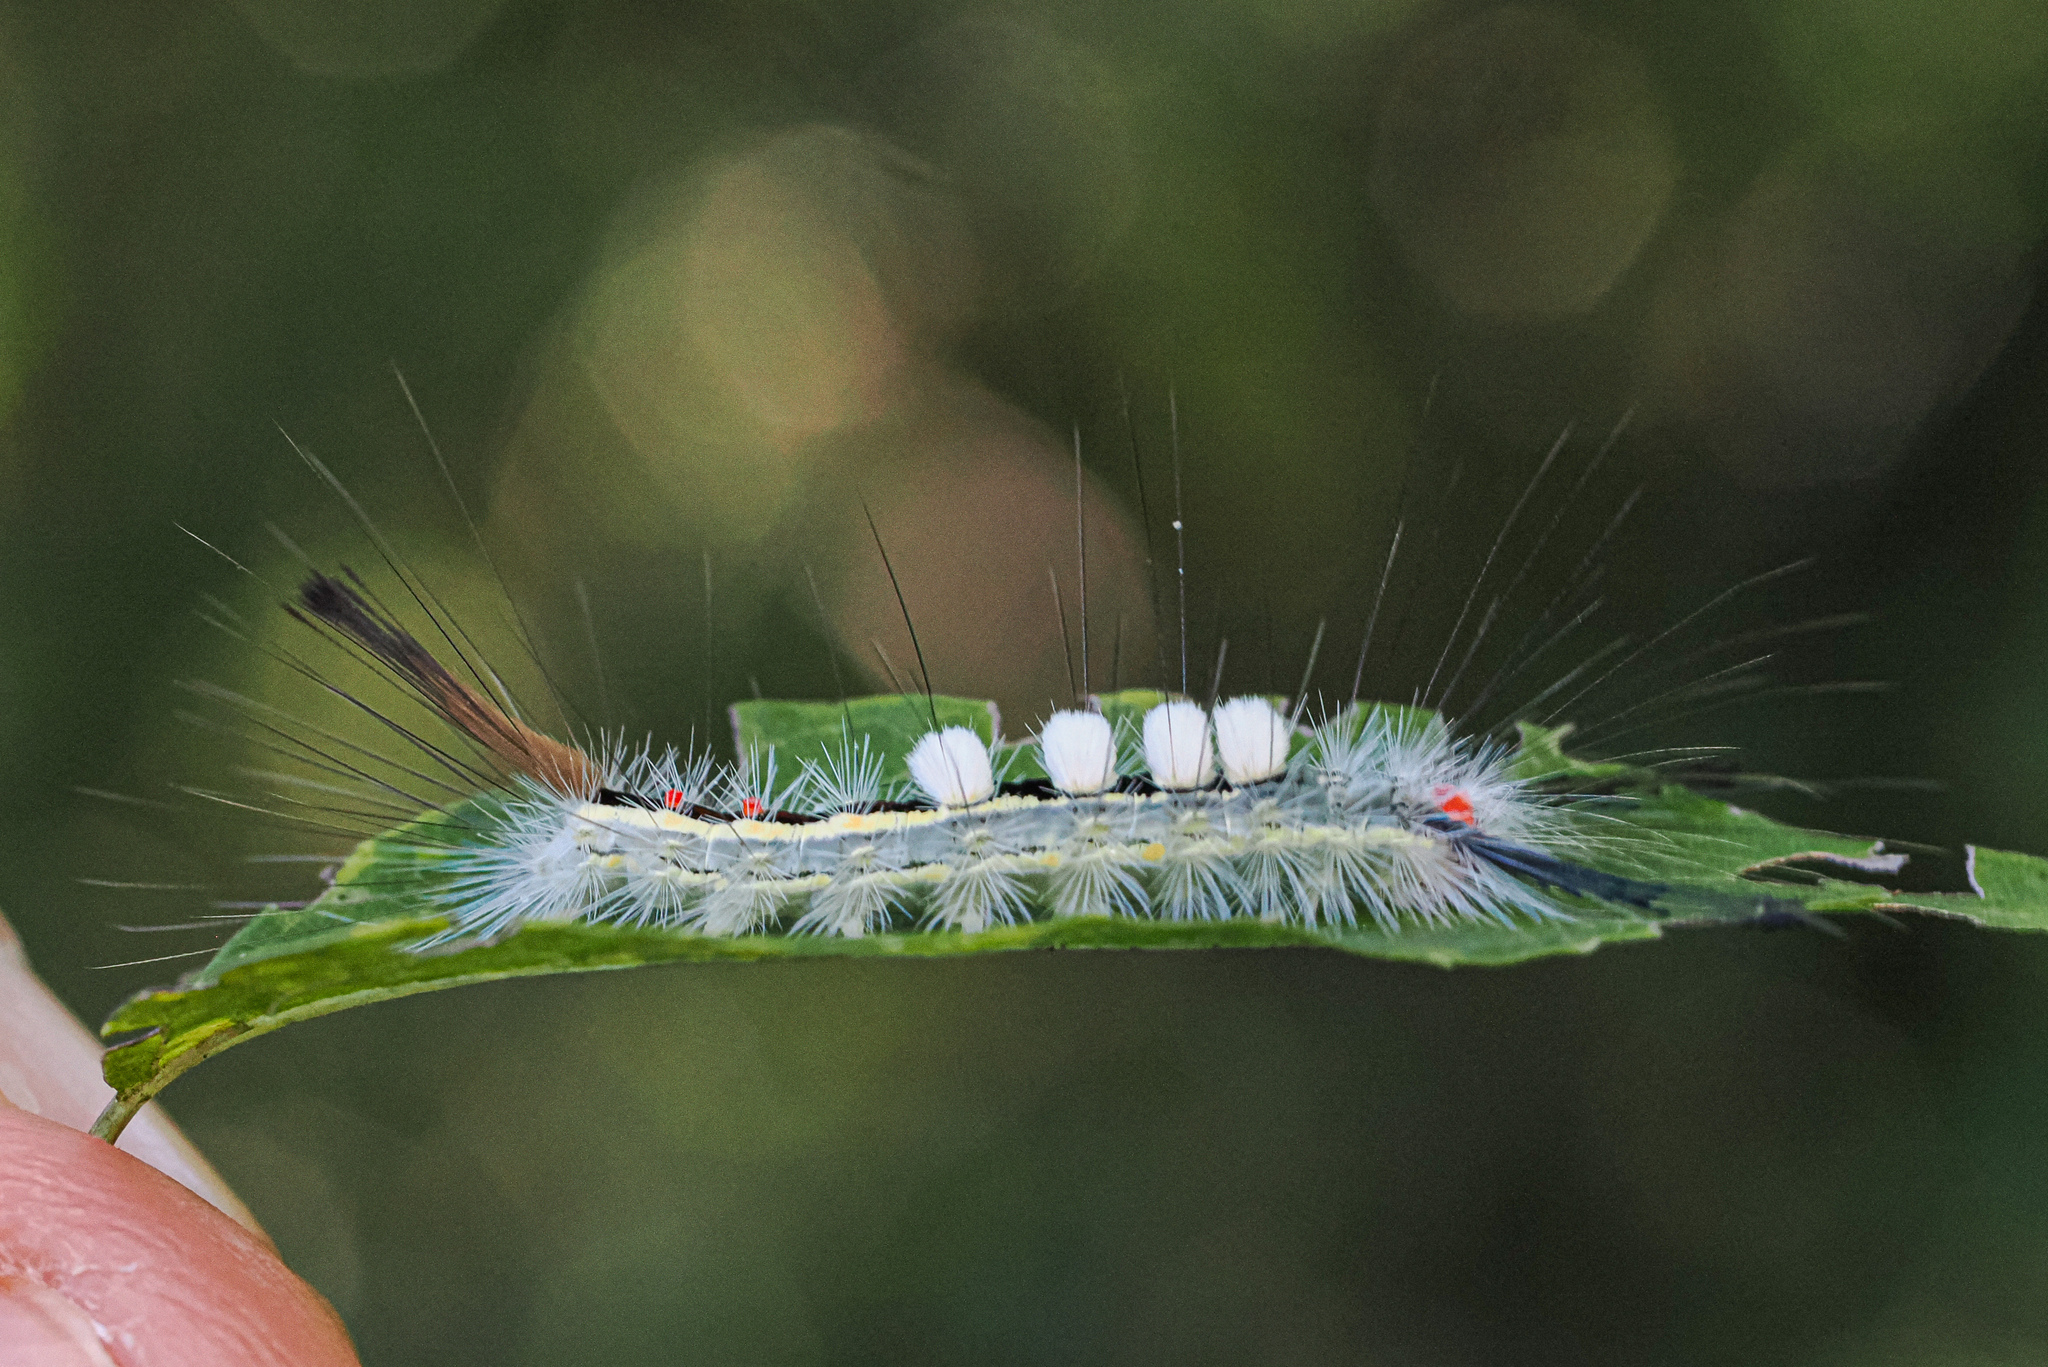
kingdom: Animalia
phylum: Arthropoda
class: Insecta
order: Lepidoptera
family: Erebidae
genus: Orgyia
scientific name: Orgyia leucostigma
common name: White-marked tussock moth
